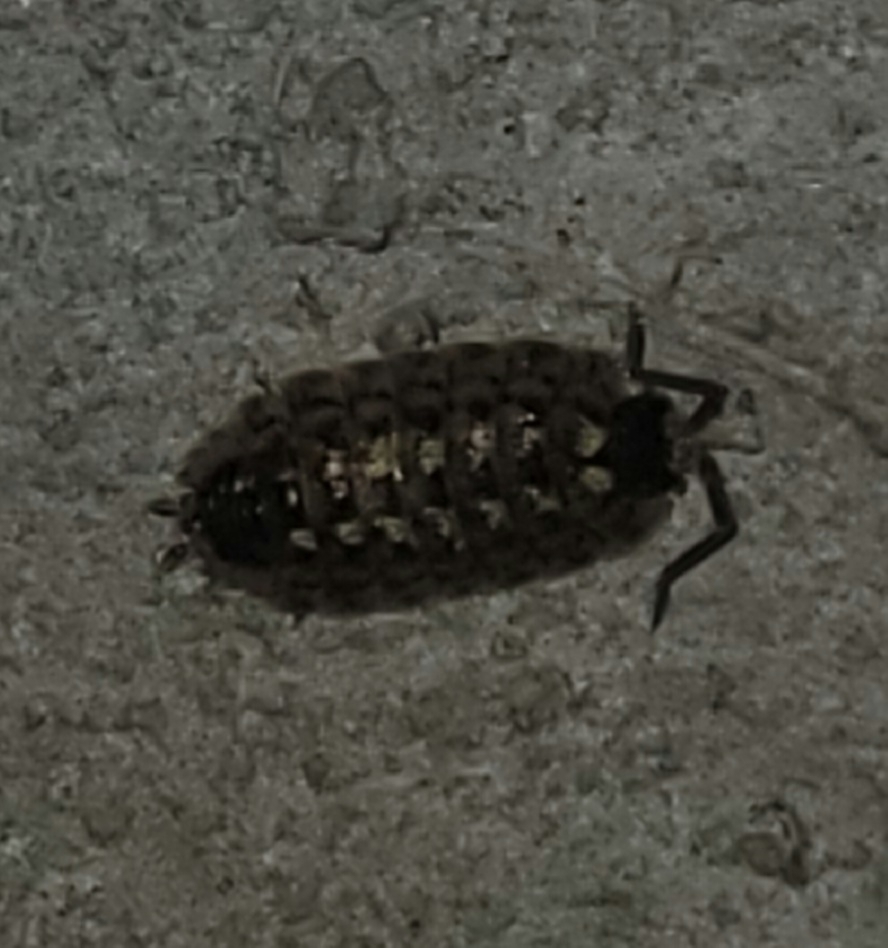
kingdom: Animalia
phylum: Arthropoda
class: Malacostraca
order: Isopoda
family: Porcellionidae
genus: Porcellio
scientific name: Porcellio spinicornis
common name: Painted woodlouse
